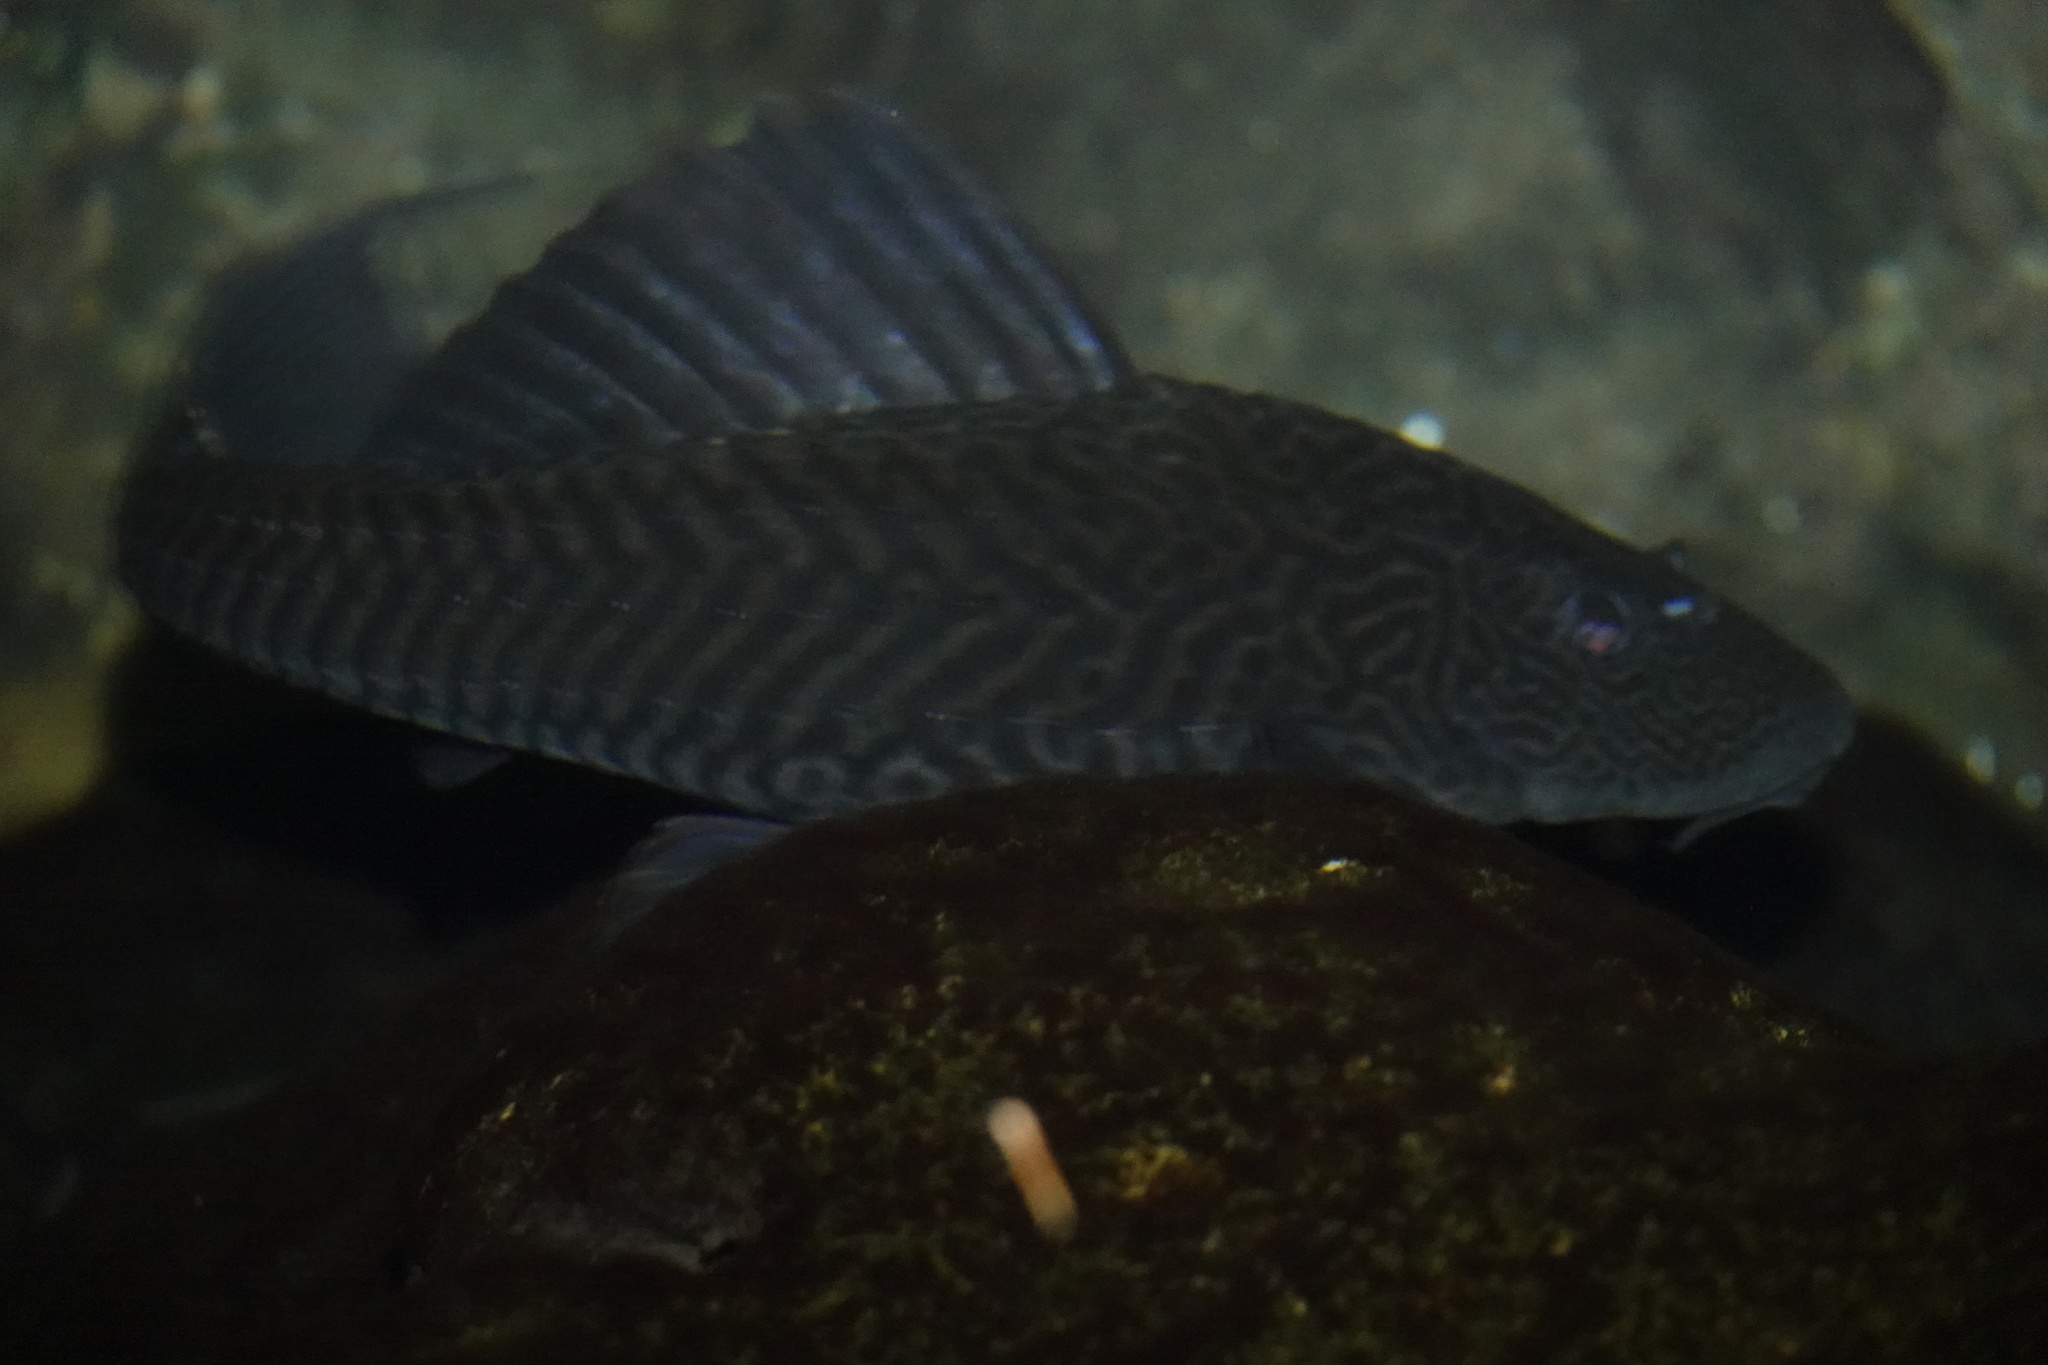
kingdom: Animalia
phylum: Chordata
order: Siluriformes
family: Loricariidae
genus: Pterygoplichthys
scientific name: Pterygoplichthys
